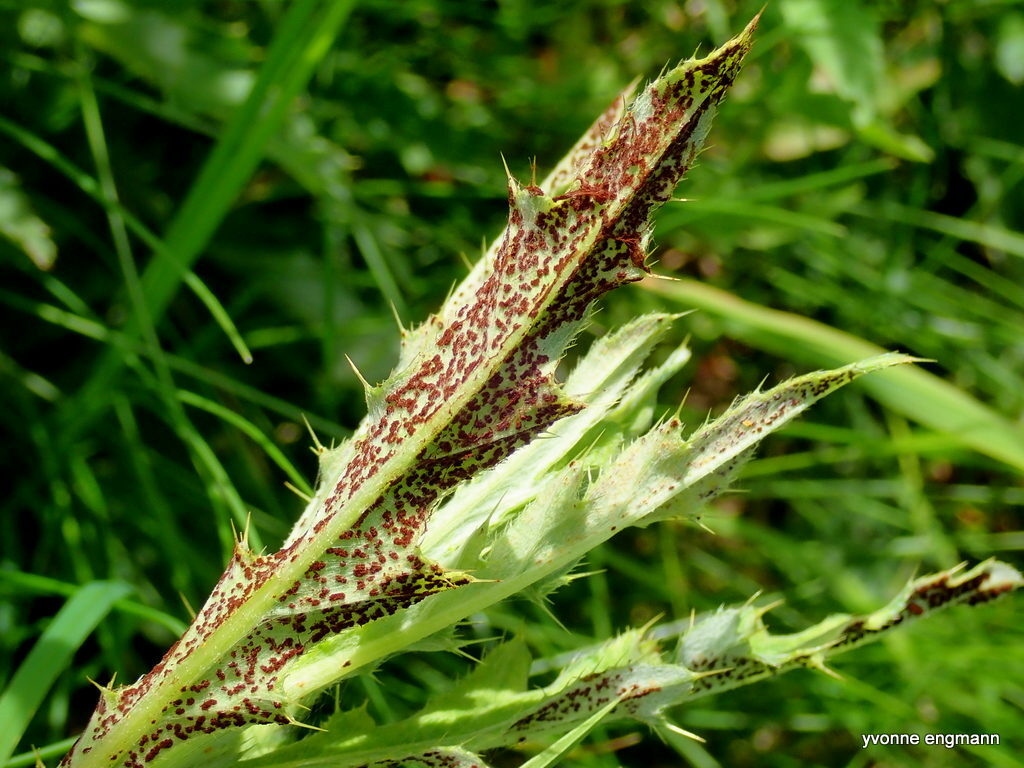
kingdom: Fungi
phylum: Basidiomycota
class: Pucciniomycetes
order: Pucciniales
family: Pucciniaceae
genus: Puccinia
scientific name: Puccinia suaveolens
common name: Thistle rust
